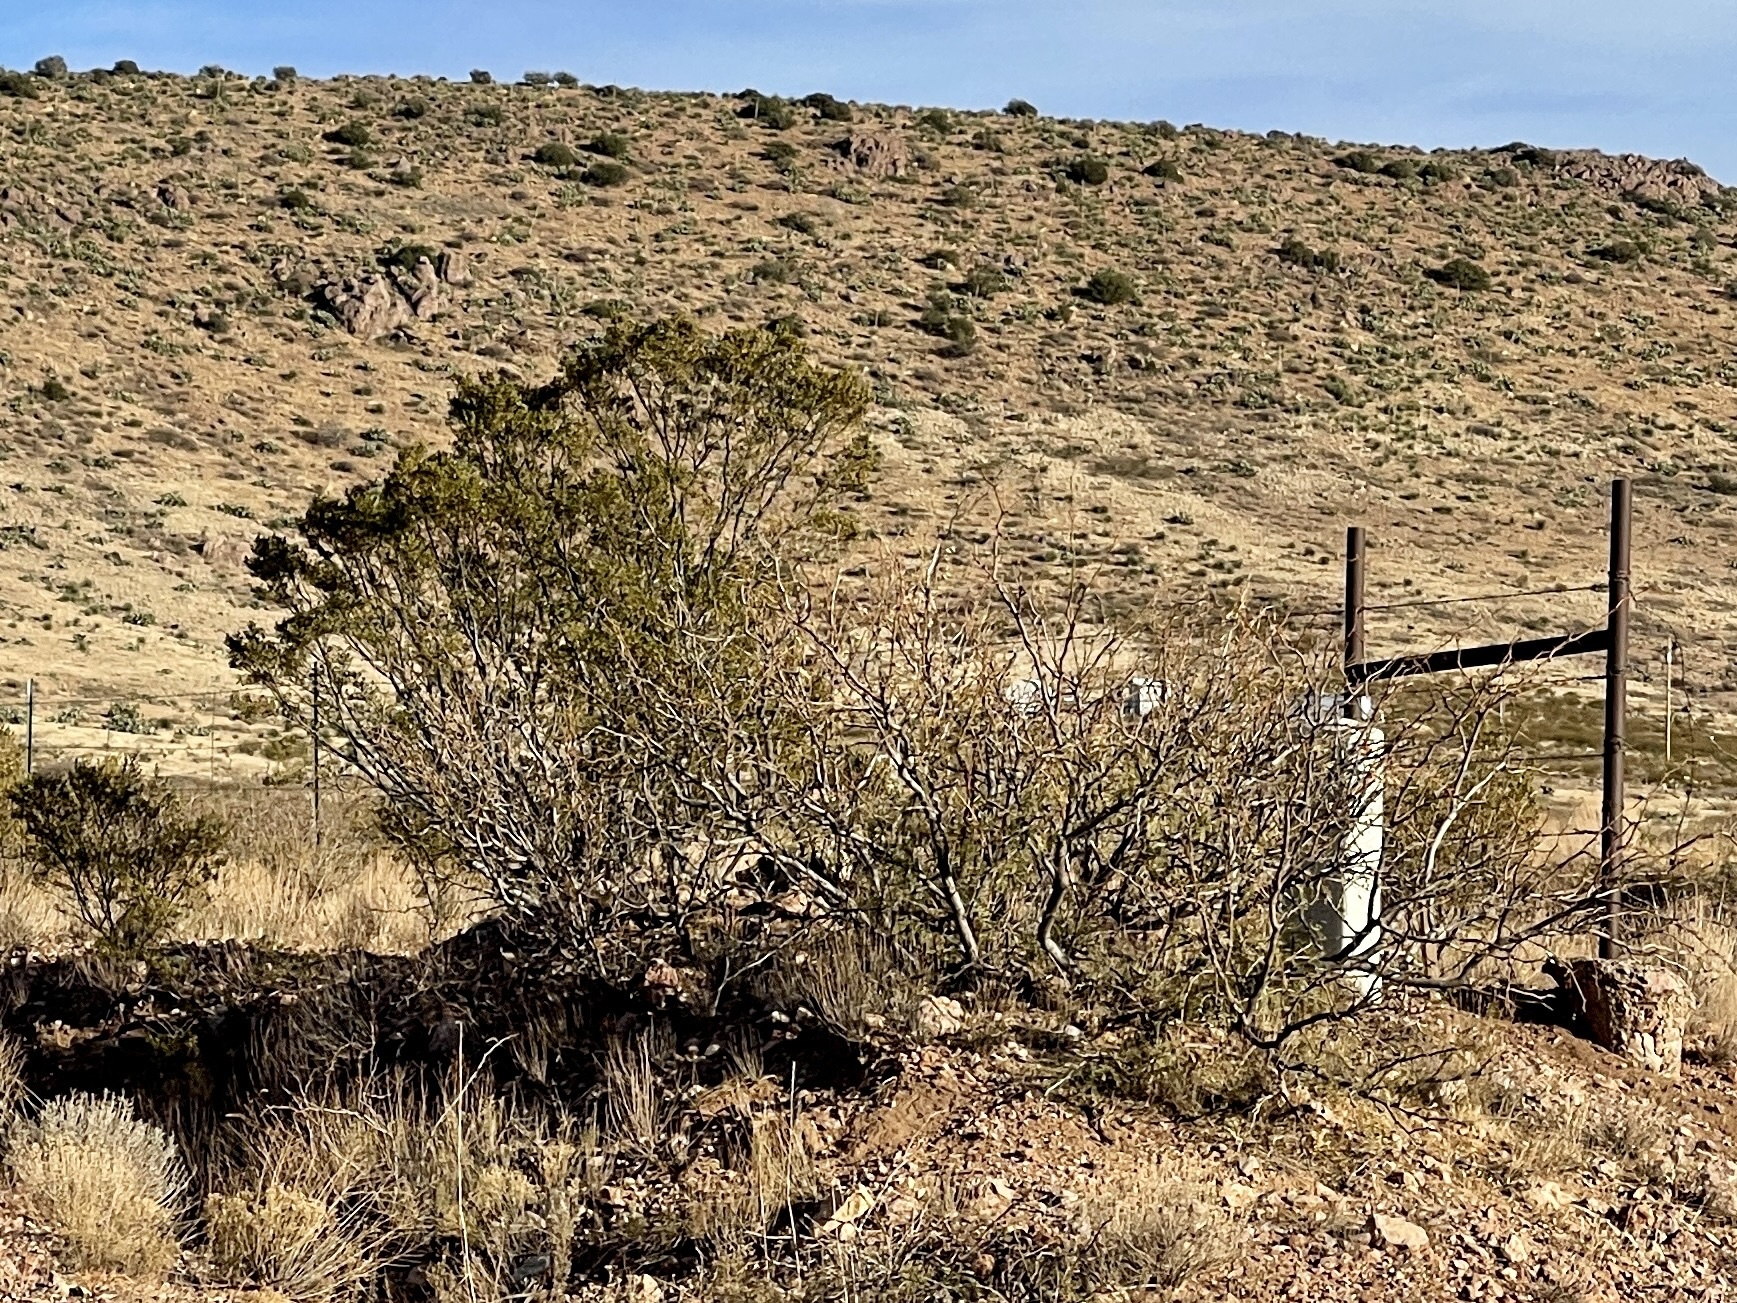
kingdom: Plantae
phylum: Tracheophyta
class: Magnoliopsida
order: Zygophyllales
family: Zygophyllaceae
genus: Larrea
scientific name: Larrea tridentata
